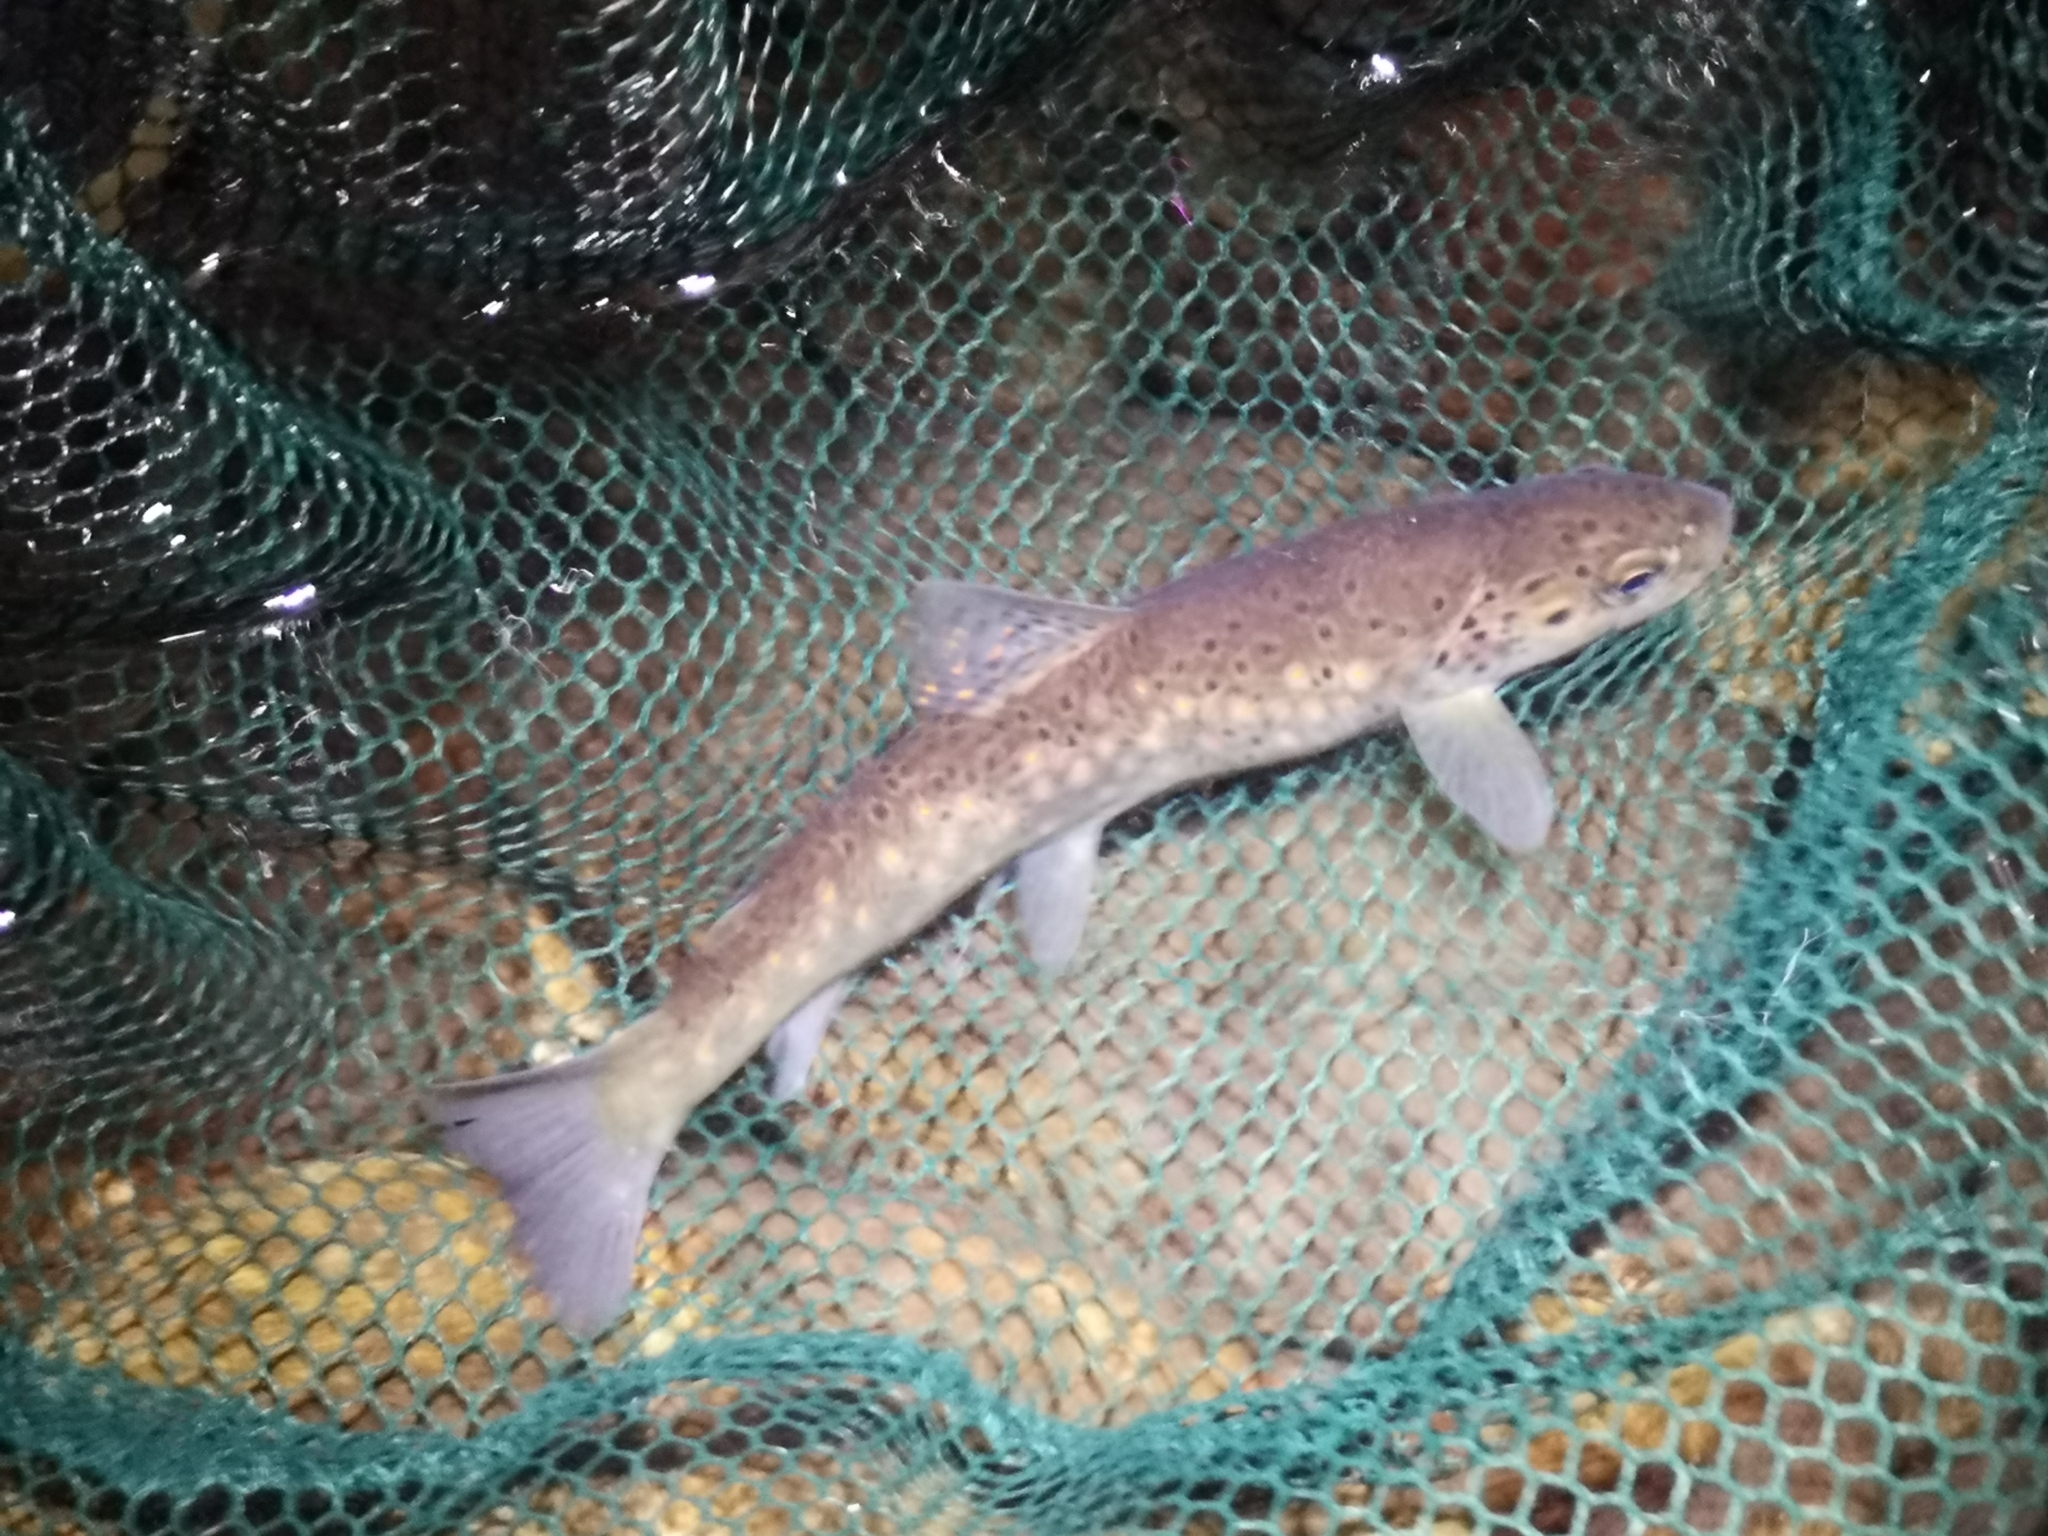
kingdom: Animalia
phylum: Chordata
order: Salmoniformes
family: Salmonidae
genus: Salmo
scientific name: Salmo trutta
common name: Brown trout
